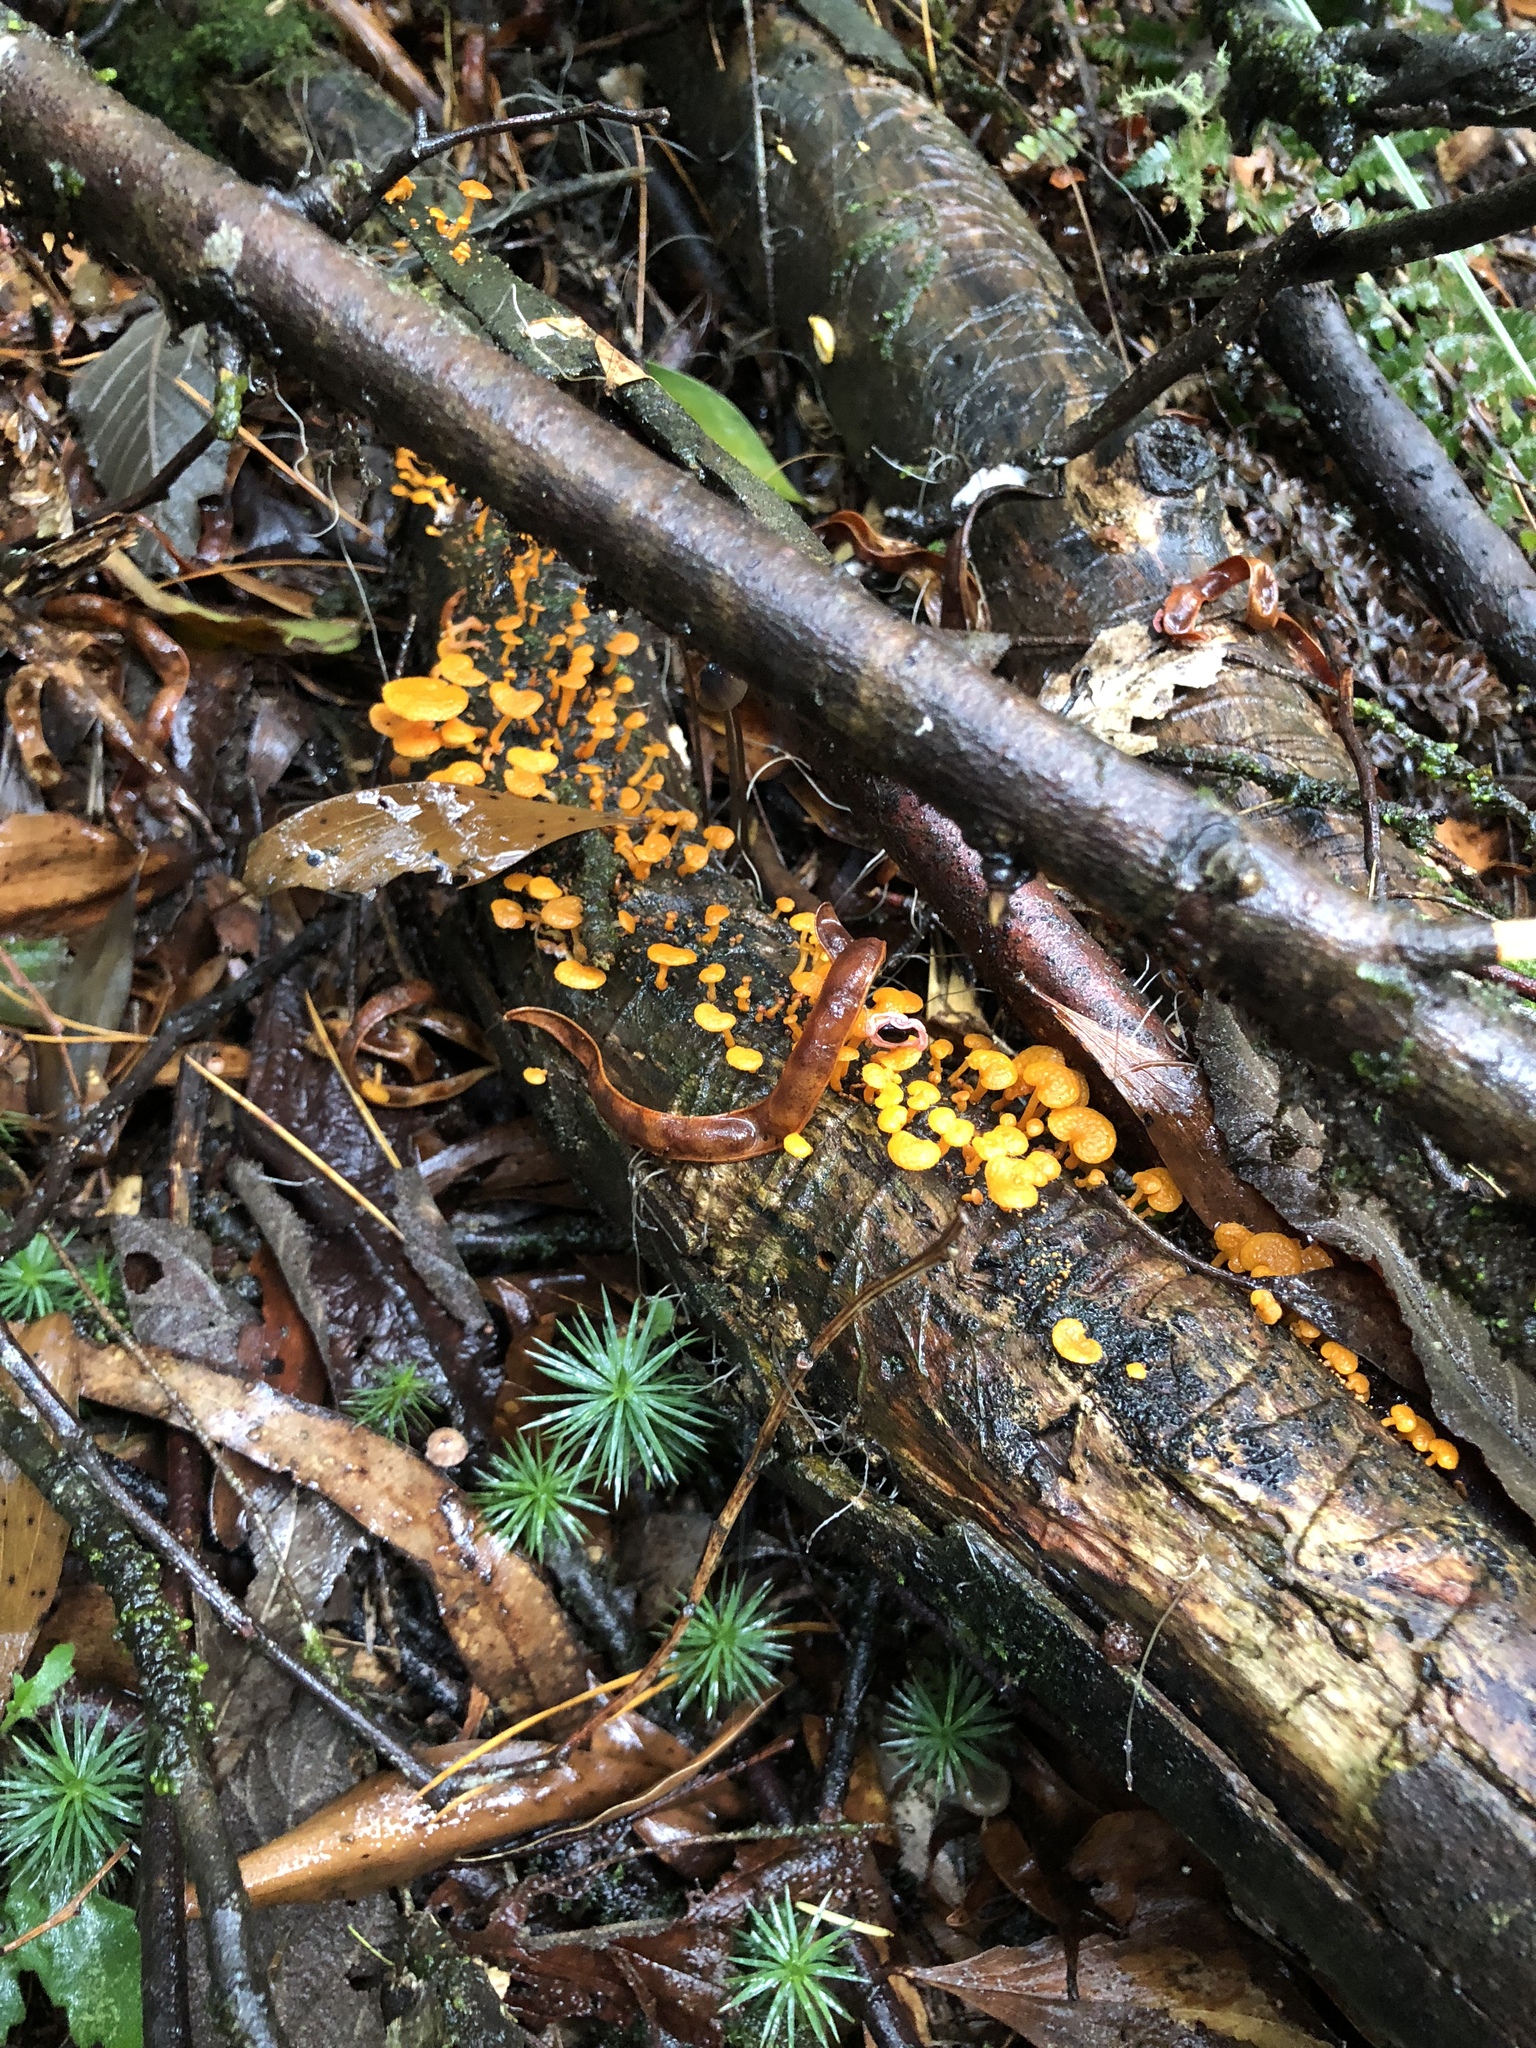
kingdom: Fungi
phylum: Basidiomycota
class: Agaricomycetes
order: Agaricales
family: Mycenaceae
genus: Favolaschia
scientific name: Favolaschia claudopus
